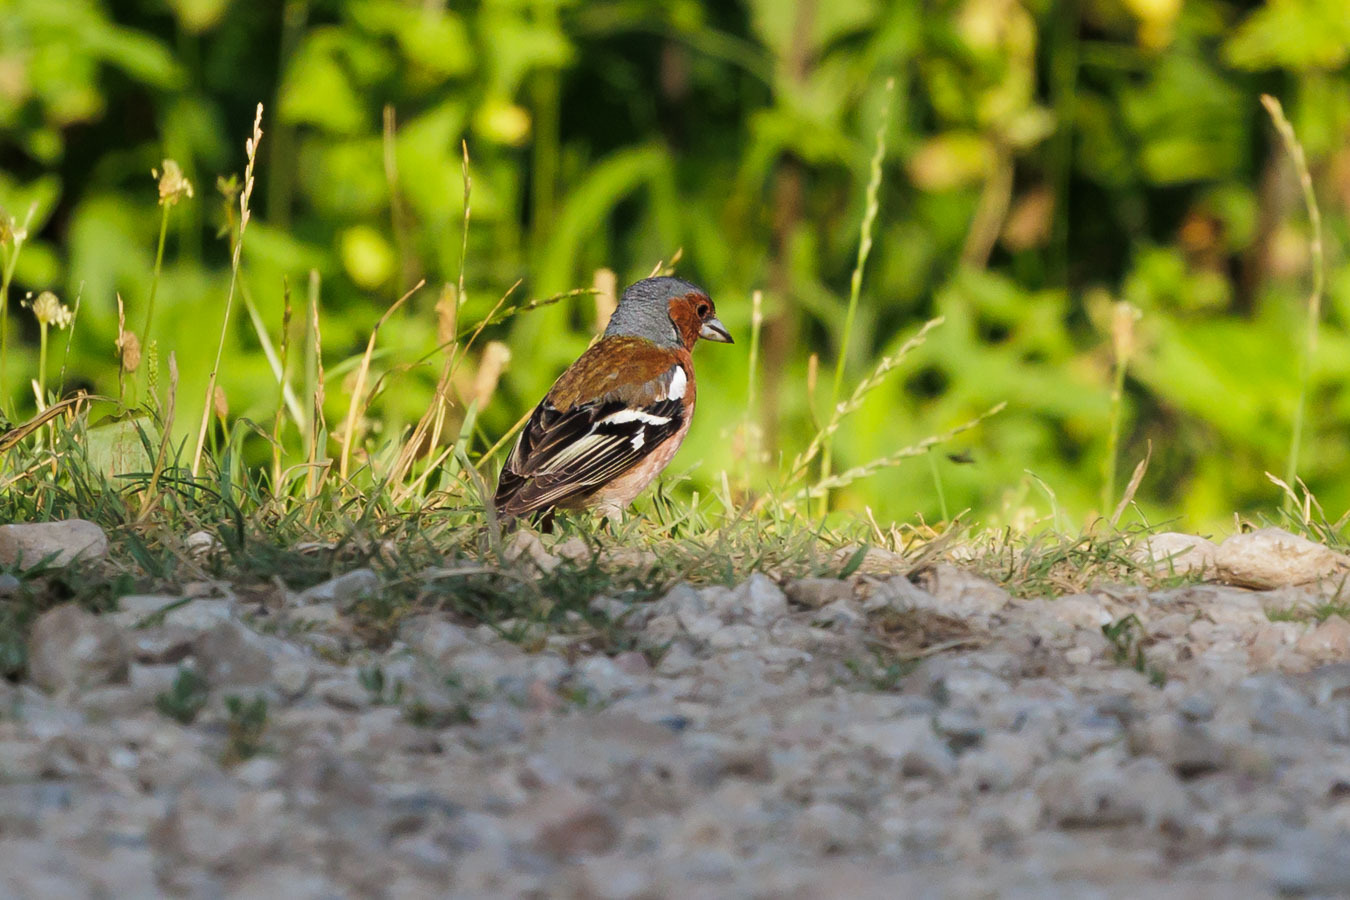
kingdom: Animalia
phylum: Chordata
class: Aves
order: Passeriformes
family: Fringillidae
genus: Fringilla
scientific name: Fringilla coelebs
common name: Common chaffinch
